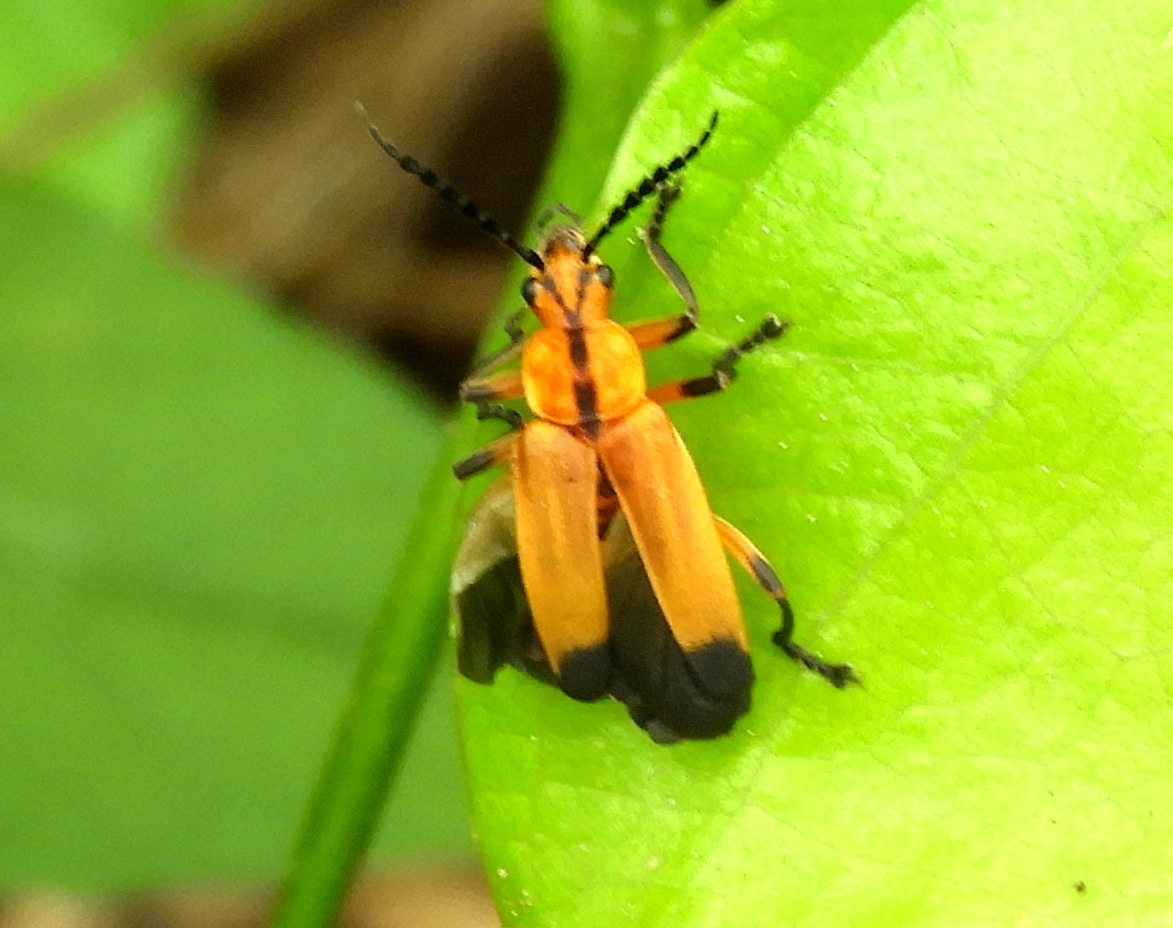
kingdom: Animalia
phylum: Arthropoda
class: Insecta
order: Coleoptera
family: Cantharidae
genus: Daiphron
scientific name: Daiphron proteum
